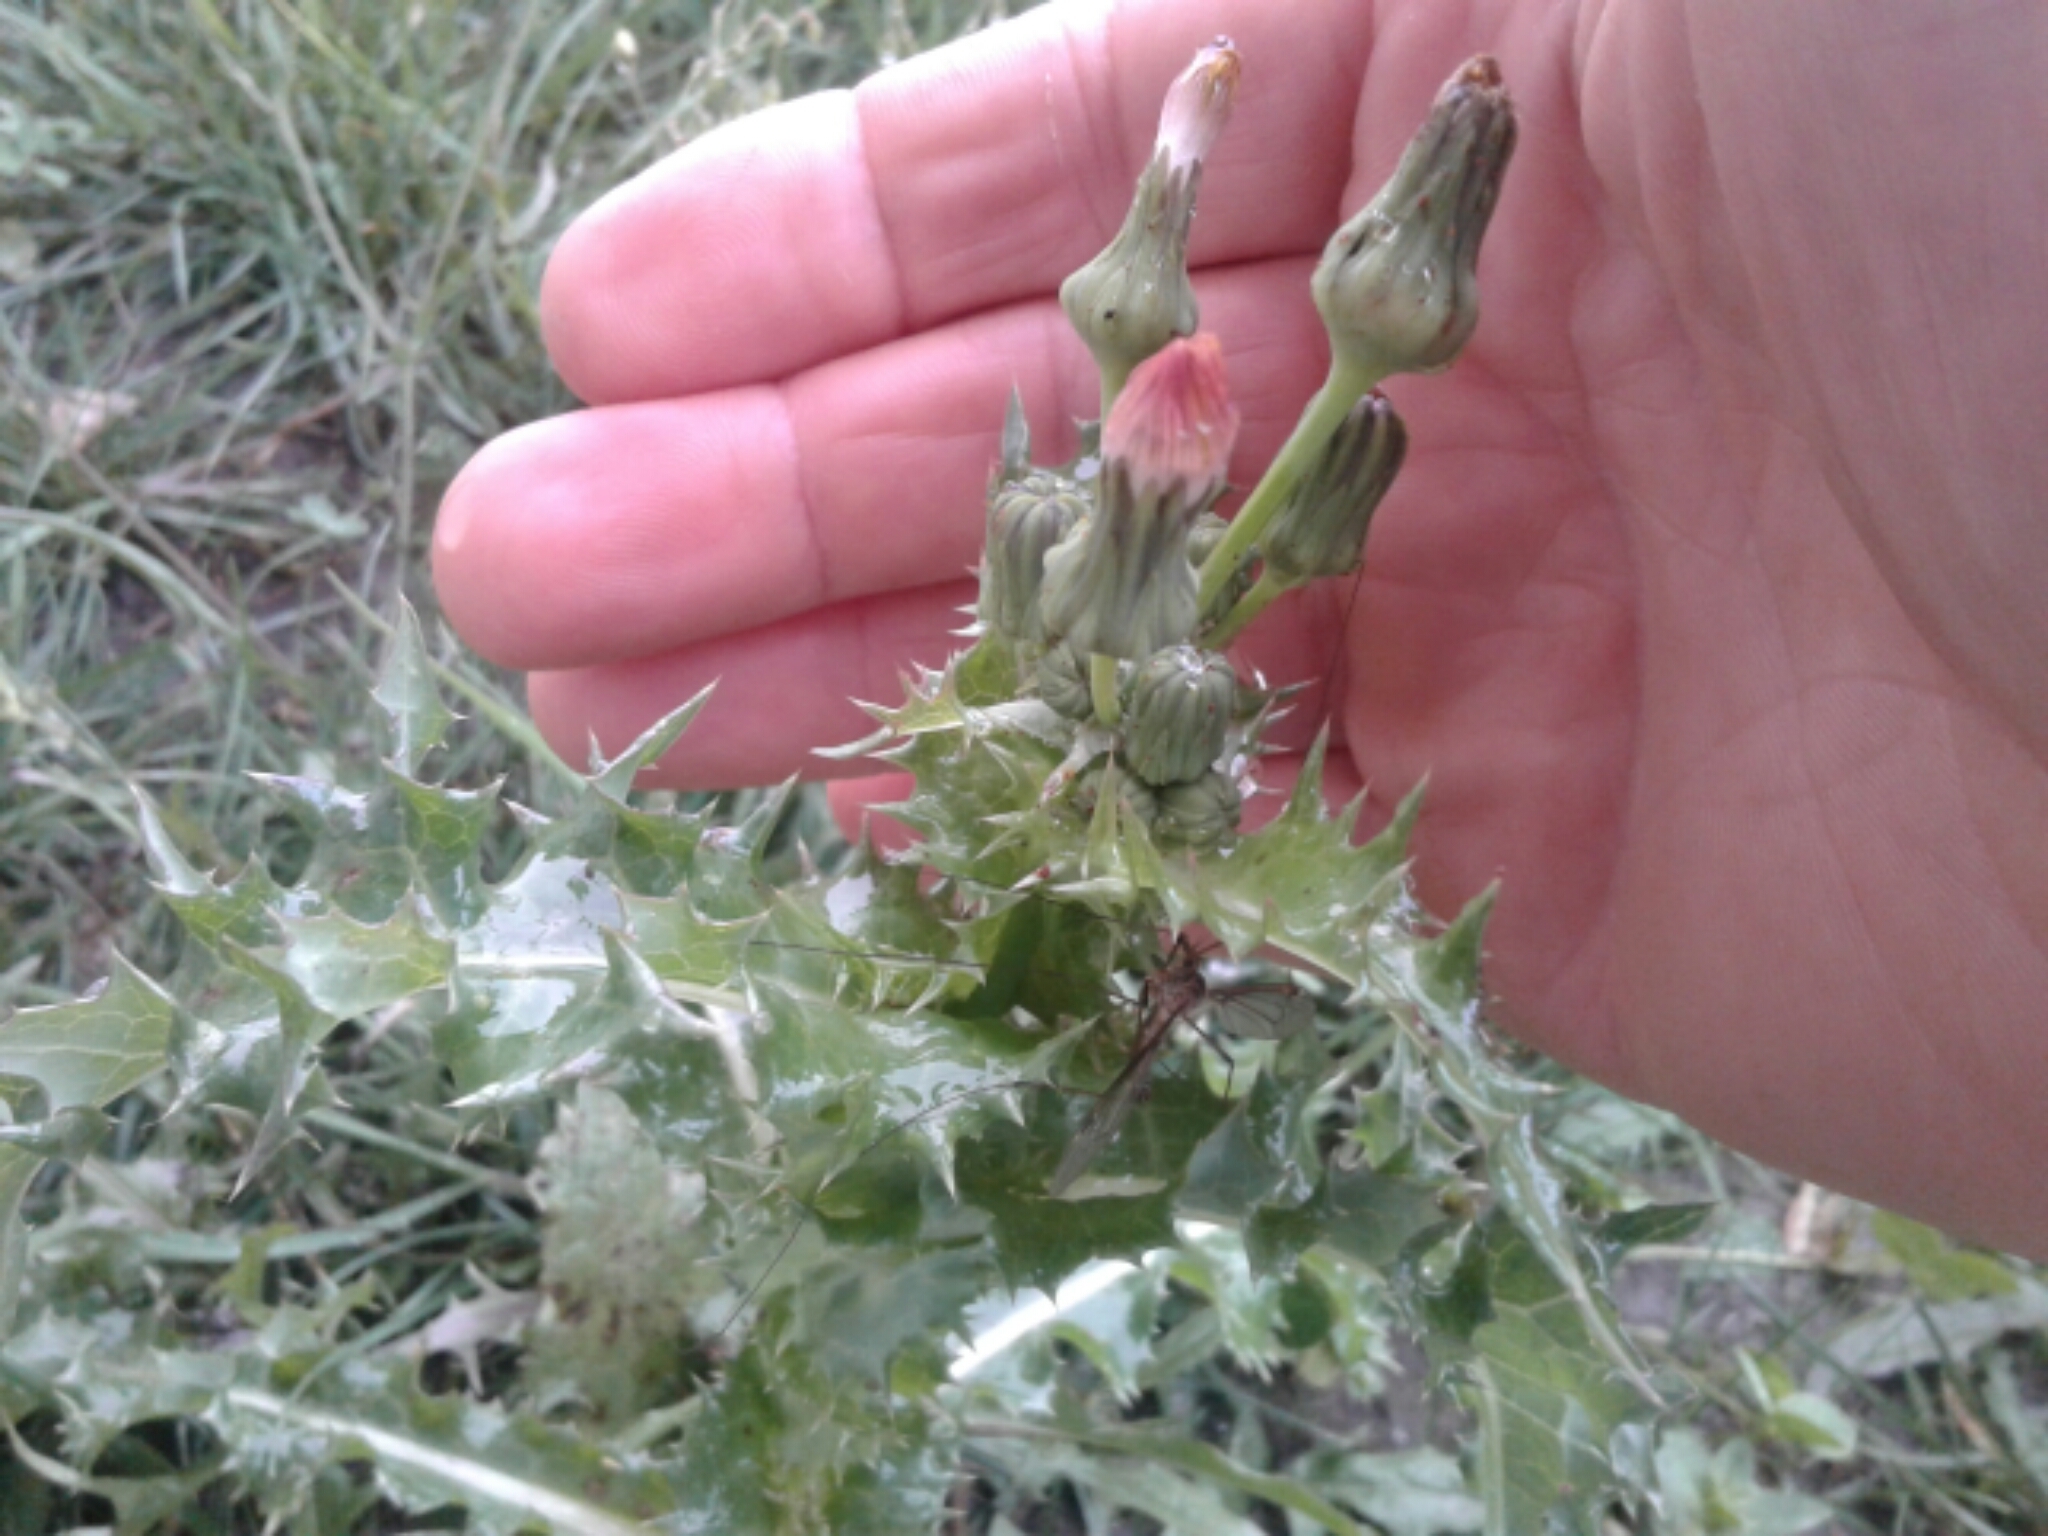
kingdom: Plantae
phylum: Tracheophyta
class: Magnoliopsida
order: Asterales
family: Asteraceae
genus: Sonchus
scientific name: Sonchus asper
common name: Prickly sow-thistle
